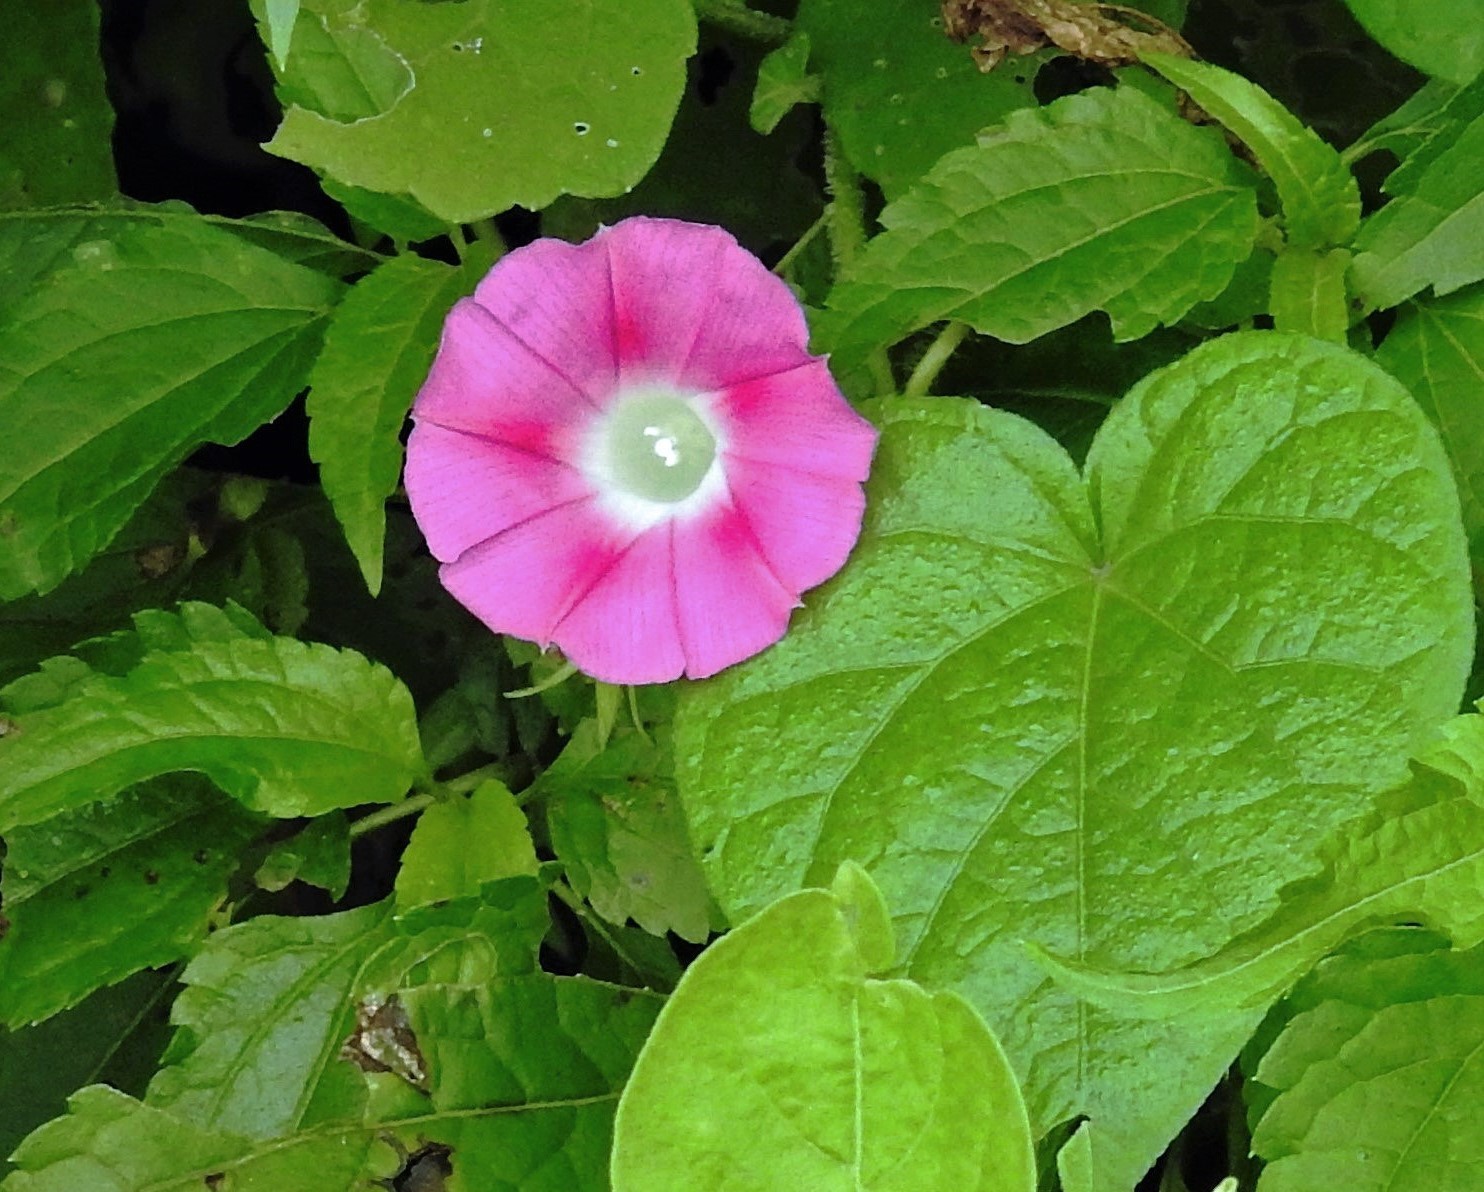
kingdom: Plantae
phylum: Tracheophyta
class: Magnoliopsida
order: Solanales
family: Convolvulaceae
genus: Ipomoea
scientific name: Ipomoea purpurea
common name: Common morning-glory
